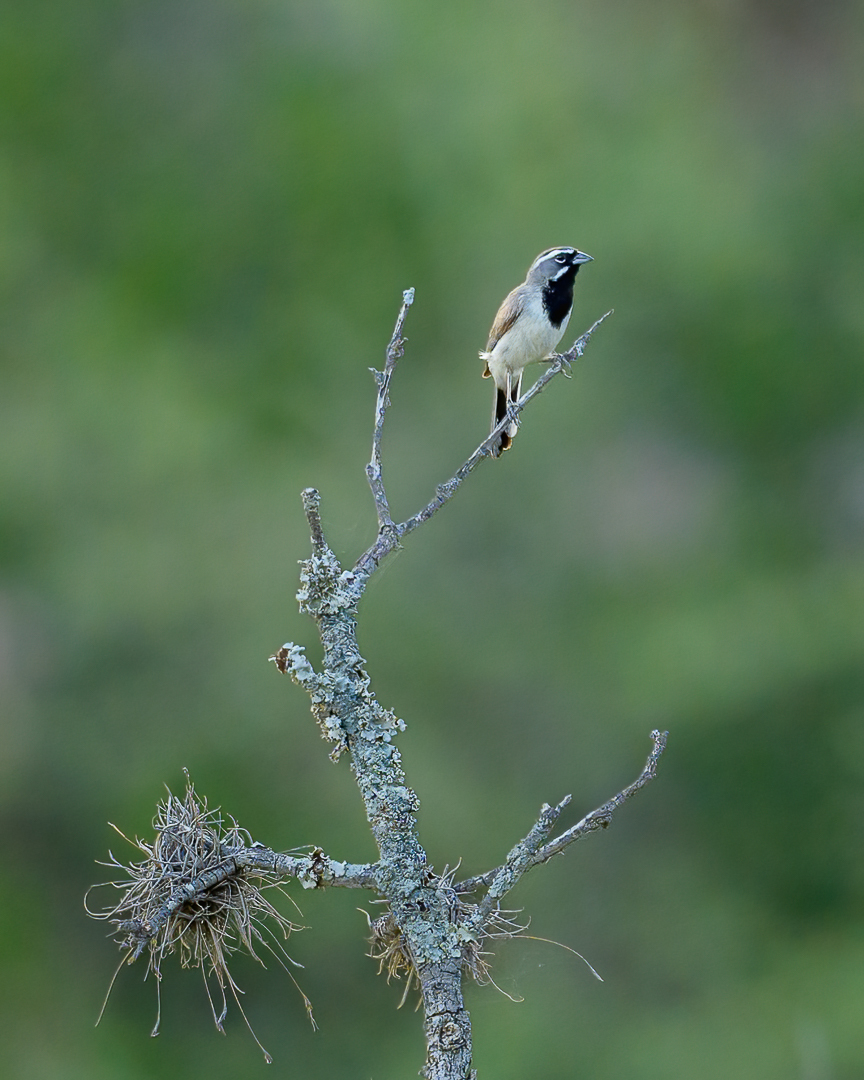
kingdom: Animalia
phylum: Chordata
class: Aves
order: Passeriformes
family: Passerellidae
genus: Amphispiza
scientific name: Amphispiza bilineata
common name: Black-throated sparrow
